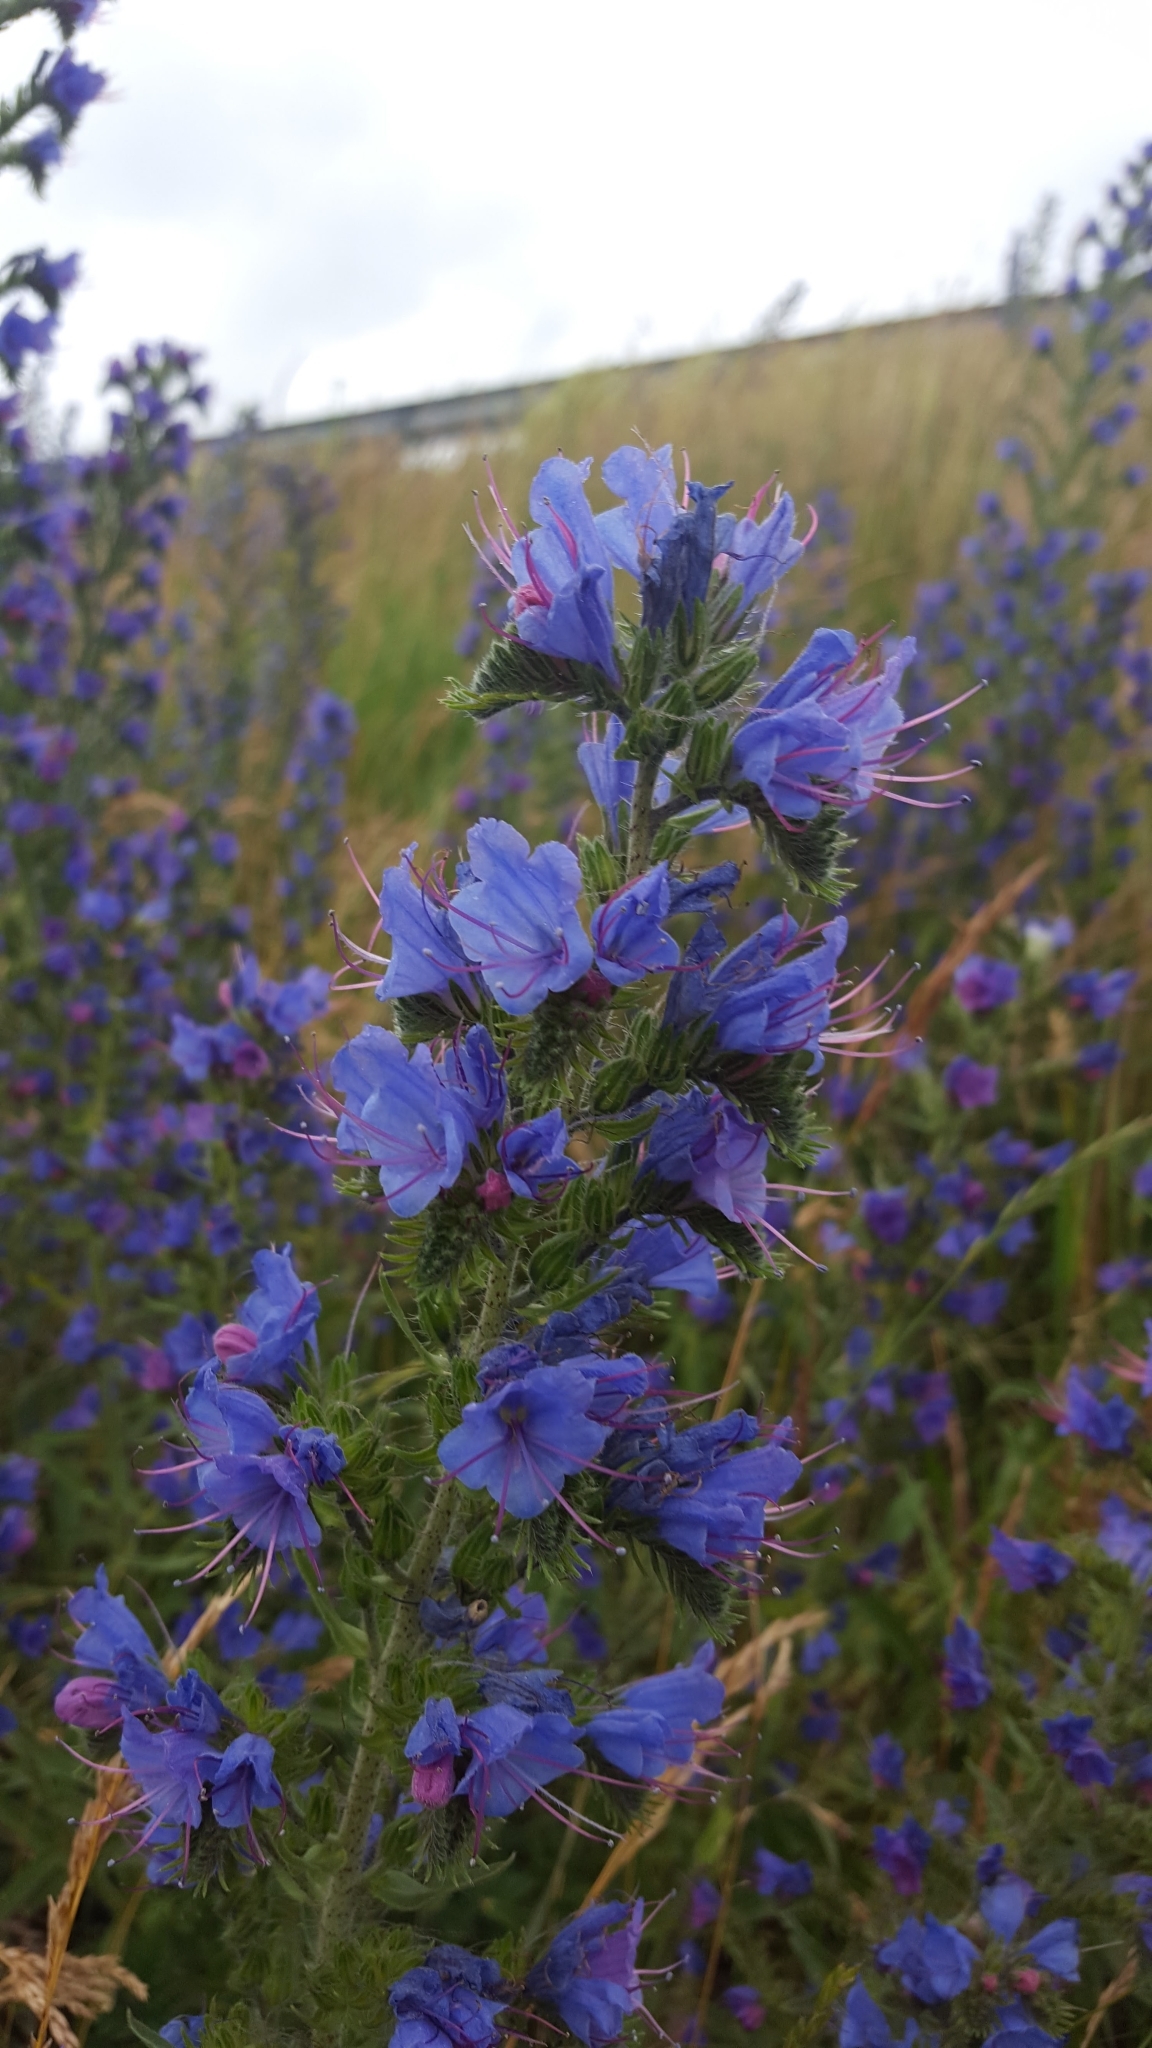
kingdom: Plantae
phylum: Tracheophyta
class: Magnoliopsida
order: Boraginales
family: Boraginaceae
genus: Echium
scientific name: Echium vulgare
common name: Common viper's bugloss
